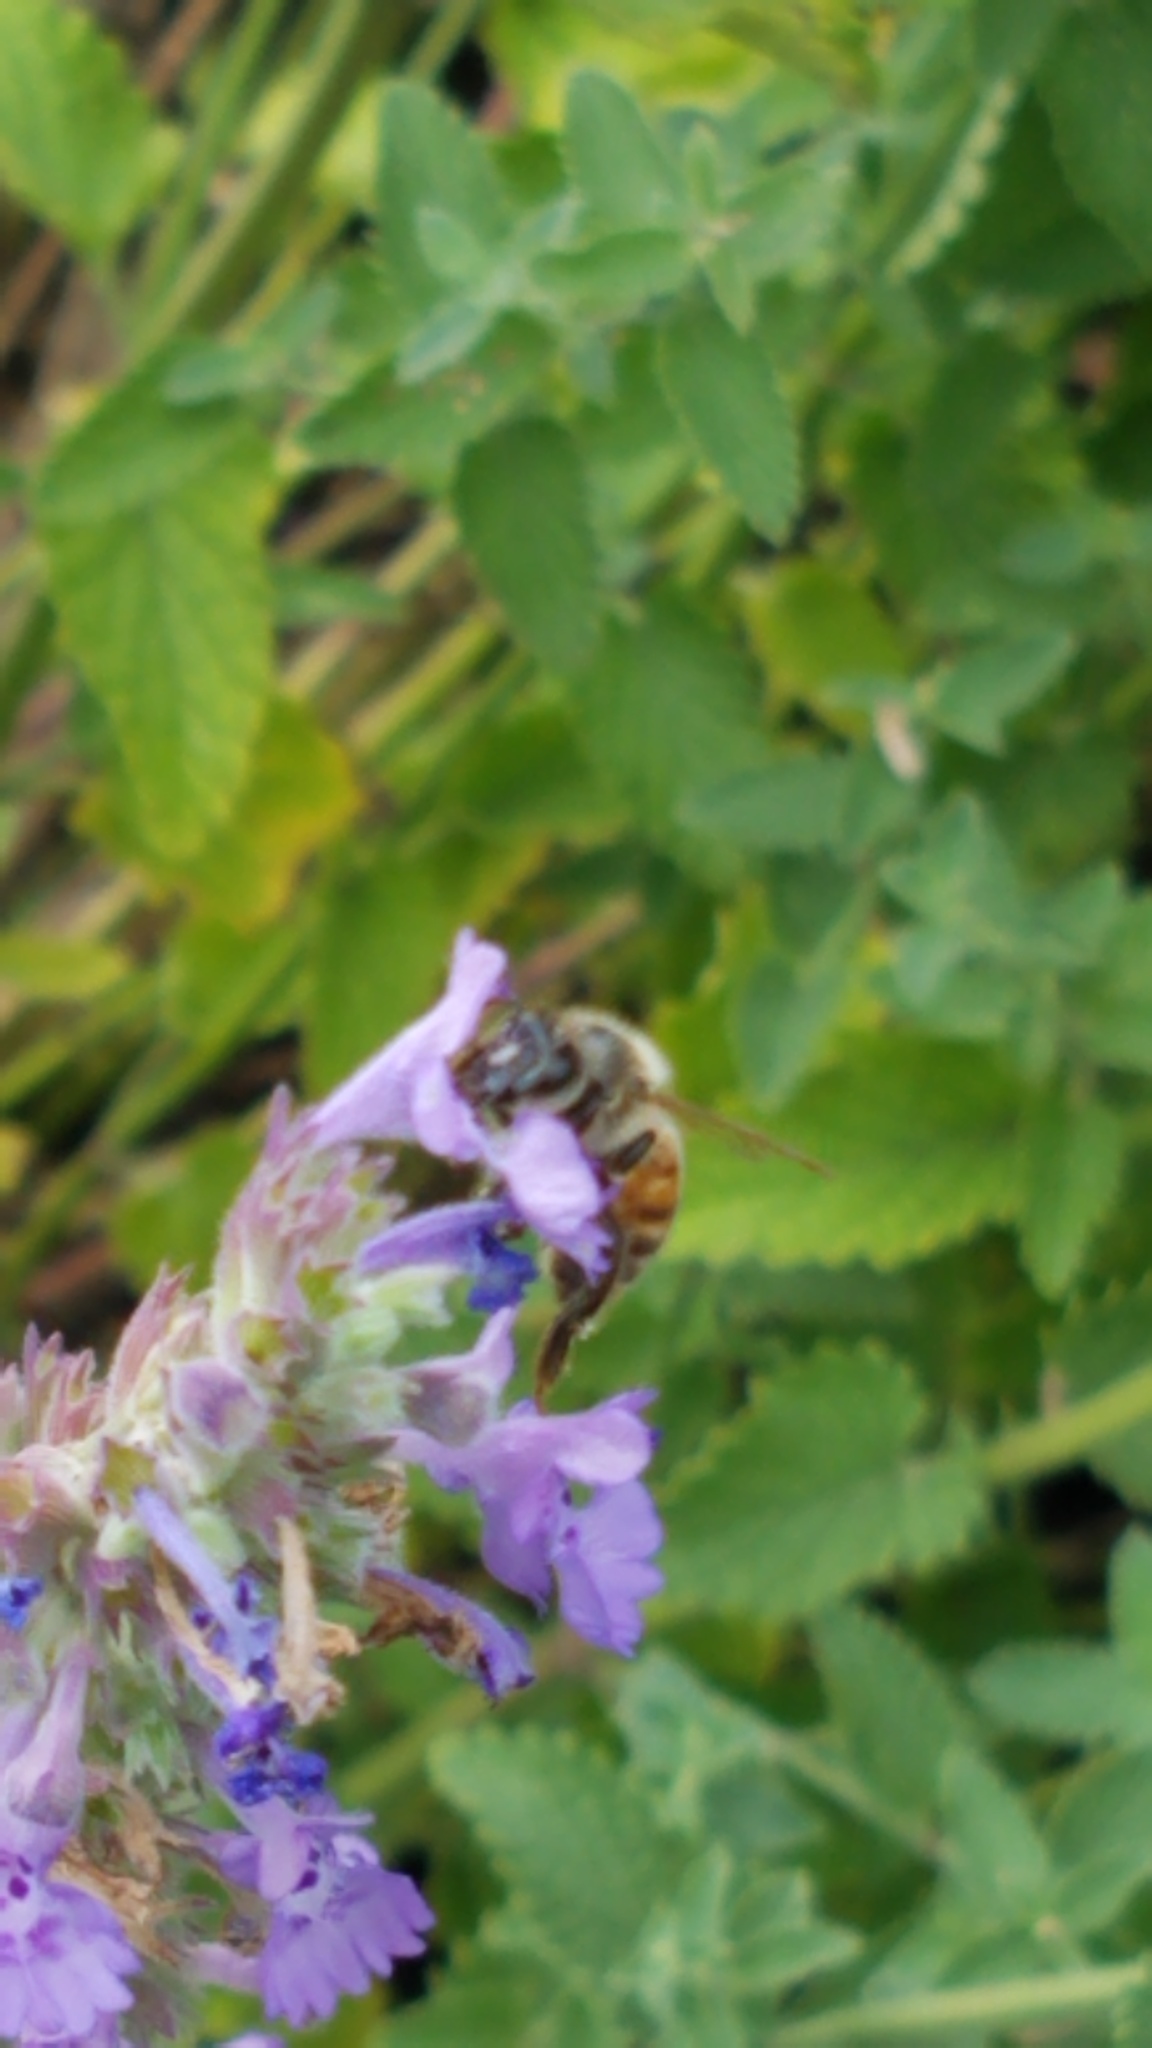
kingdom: Animalia
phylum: Arthropoda
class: Insecta
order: Hymenoptera
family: Apidae
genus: Apis
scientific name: Apis mellifera
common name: Honey bee
